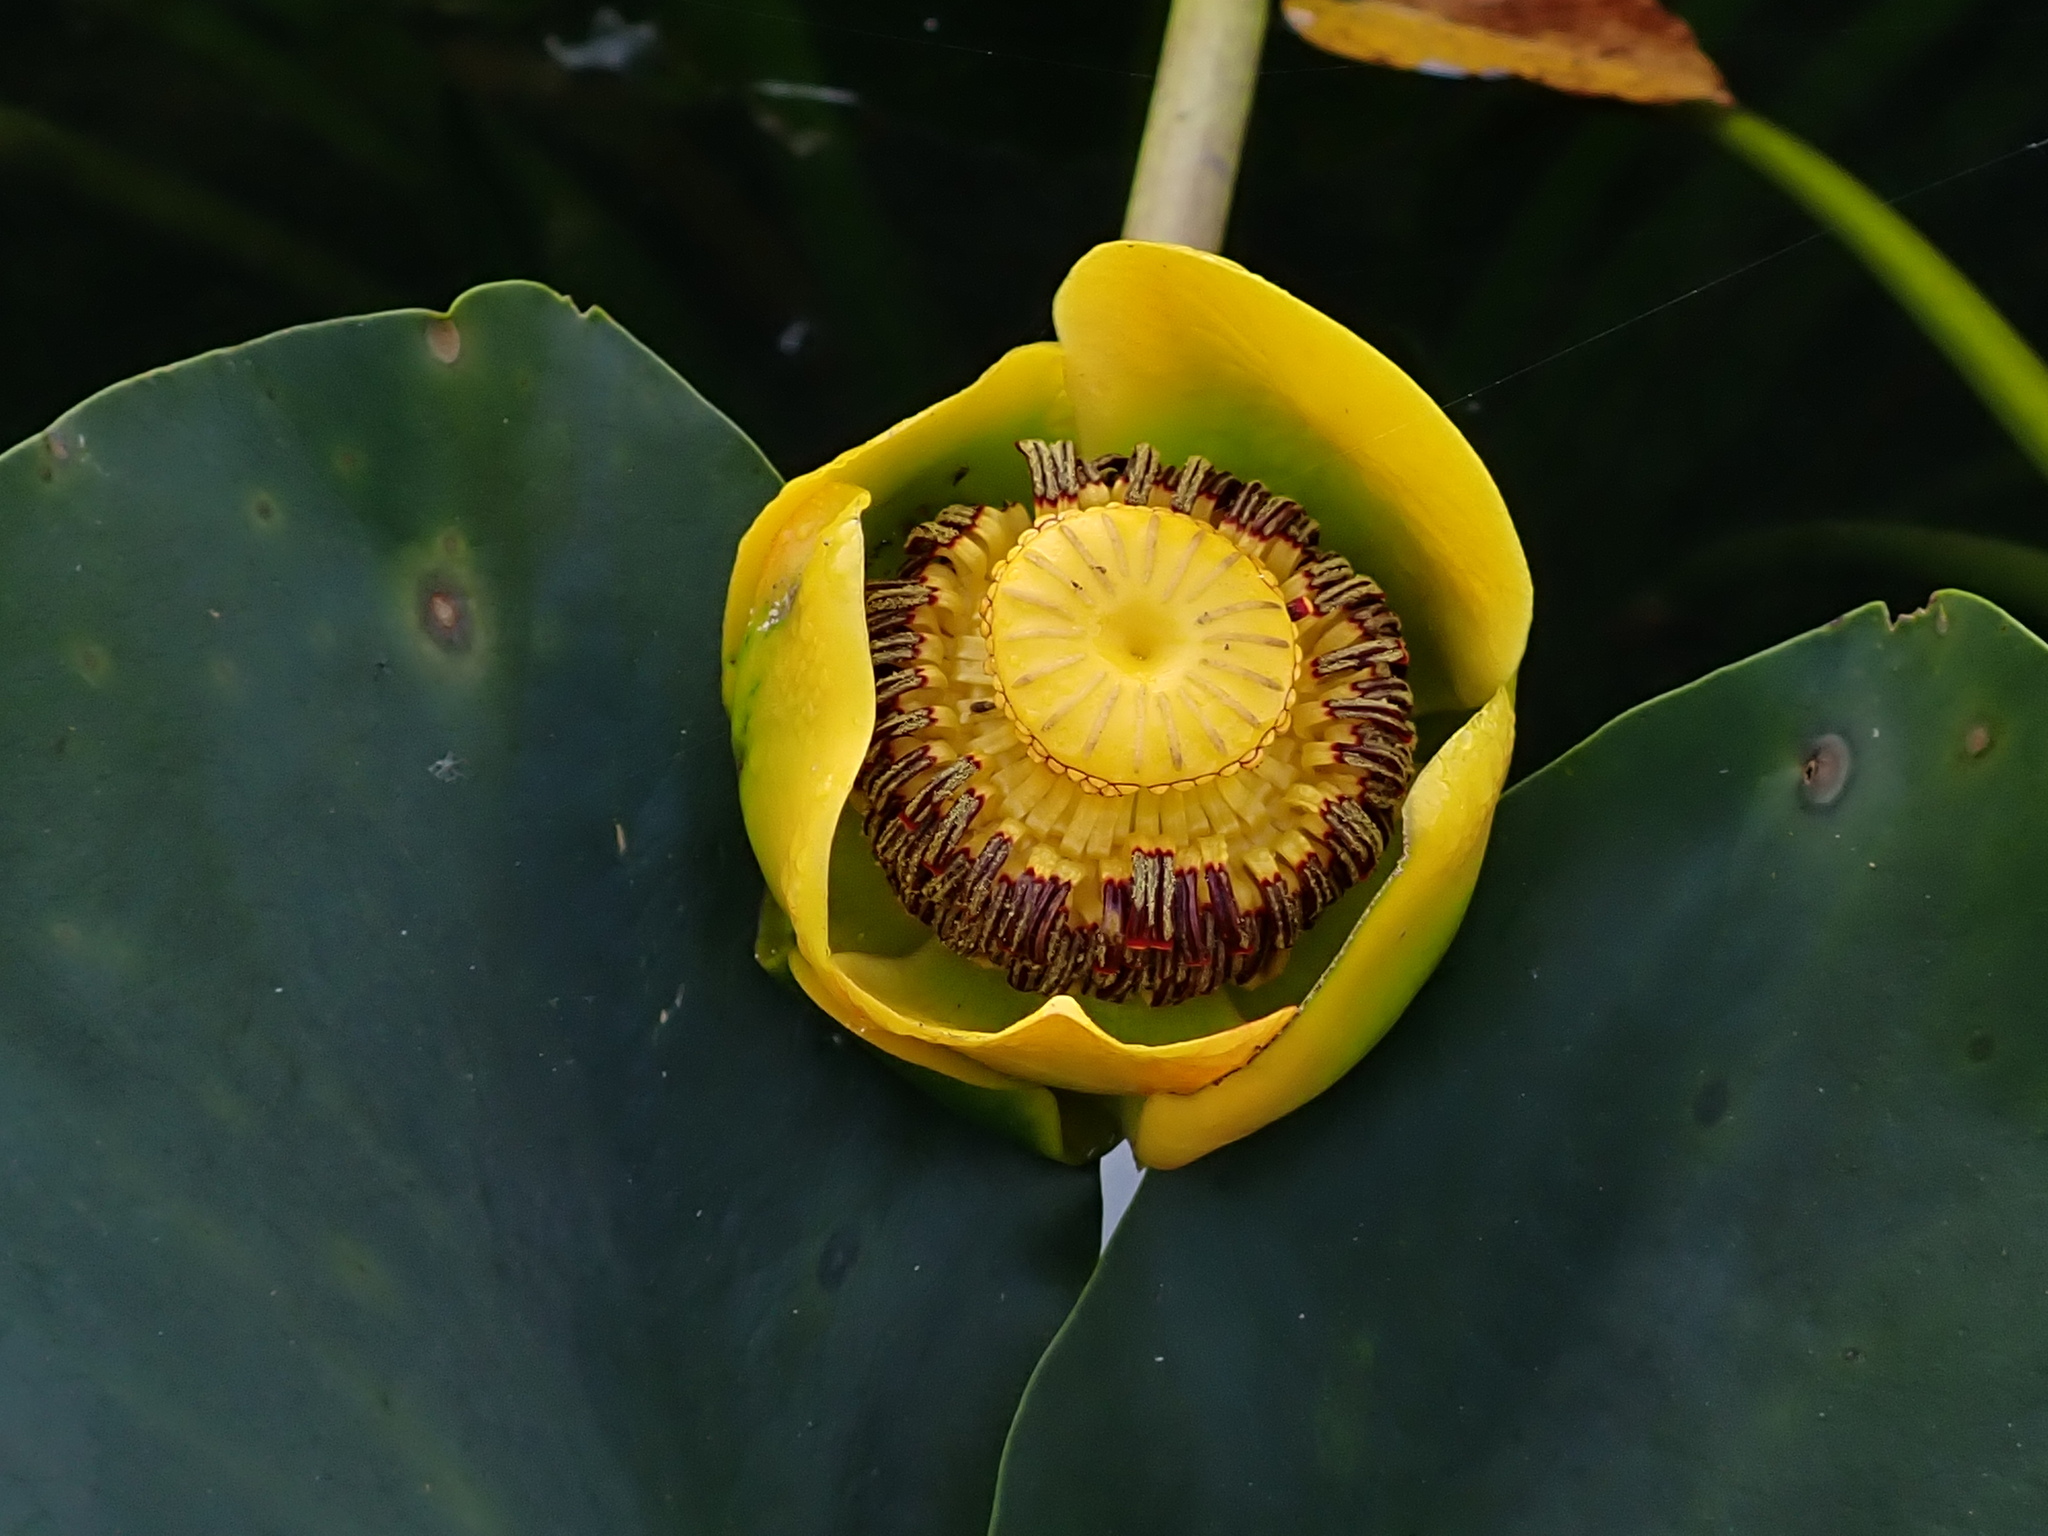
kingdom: Plantae
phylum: Tracheophyta
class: Magnoliopsida
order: Nymphaeales
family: Nymphaeaceae
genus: Nuphar
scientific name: Nuphar polysepala
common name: Rocky mountain cow-lily
